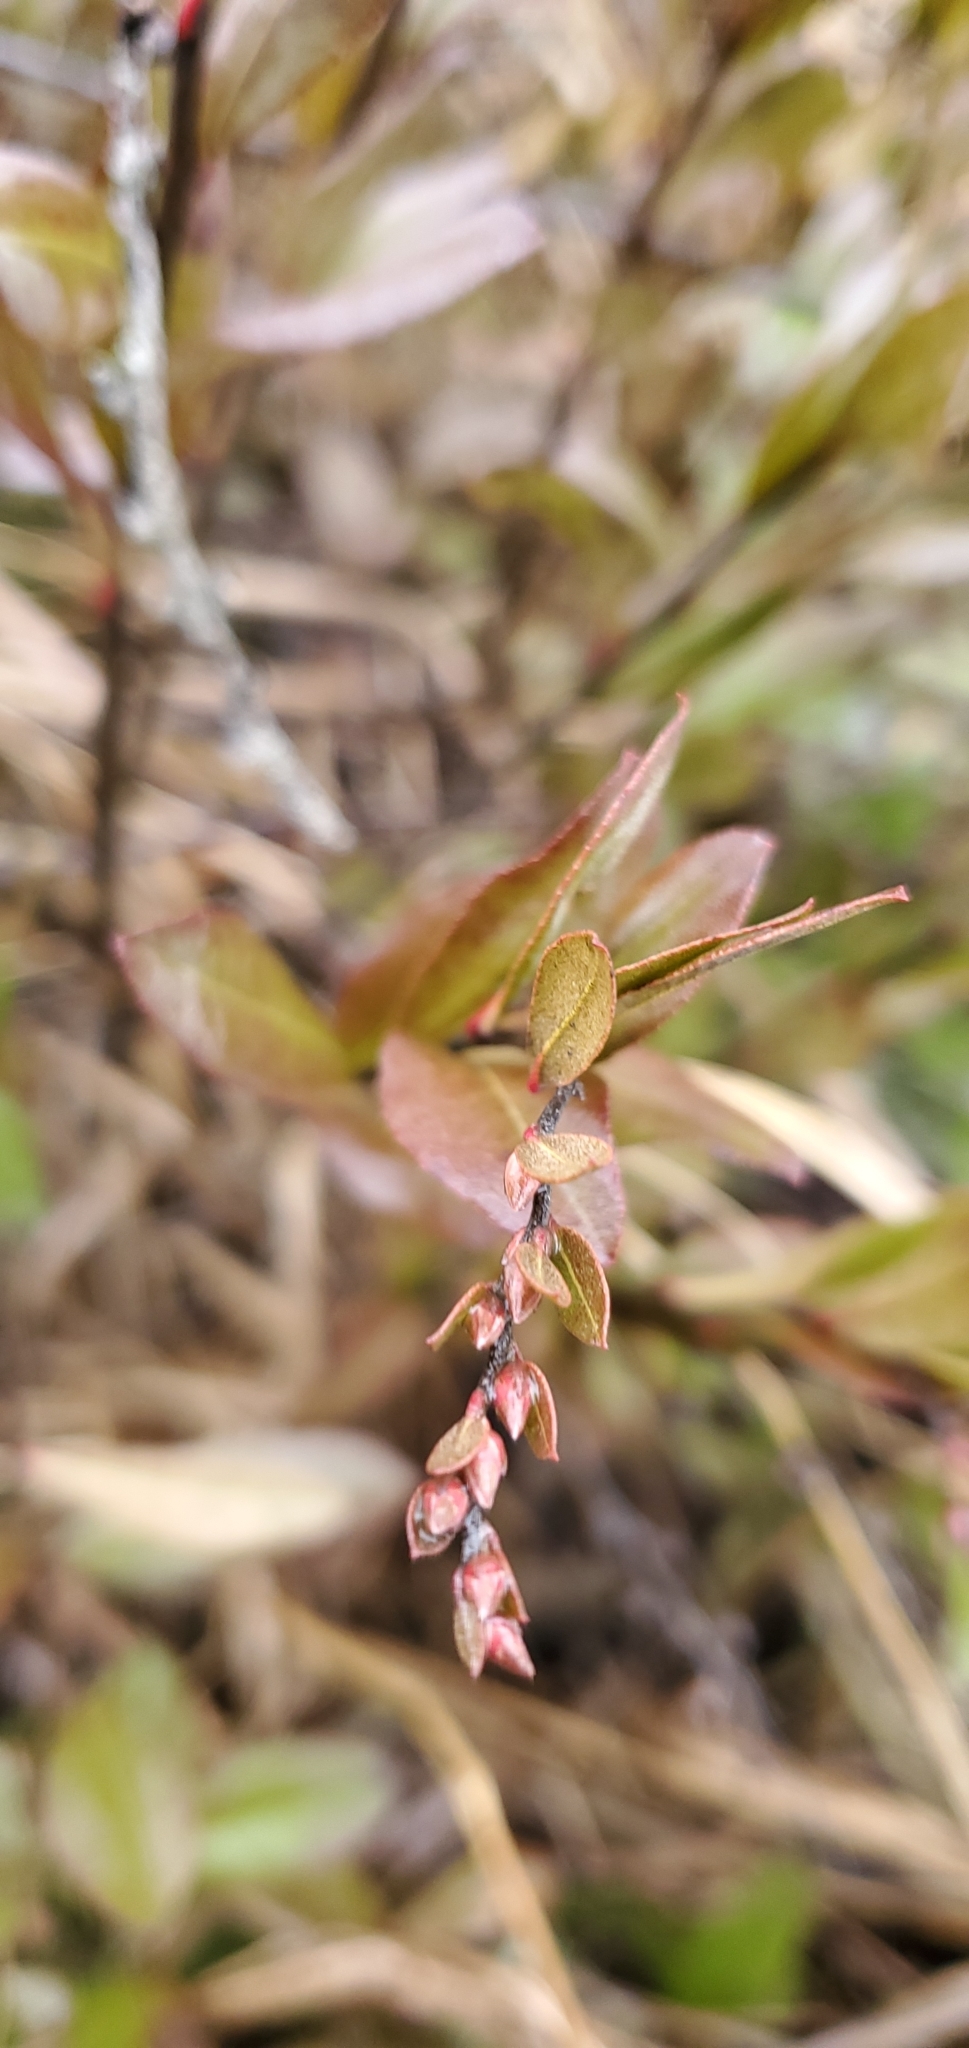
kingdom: Plantae
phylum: Tracheophyta
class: Magnoliopsida
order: Ericales
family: Ericaceae
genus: Chamaedaphne
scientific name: Chamaedaphne calyculata
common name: Leatherleaf
